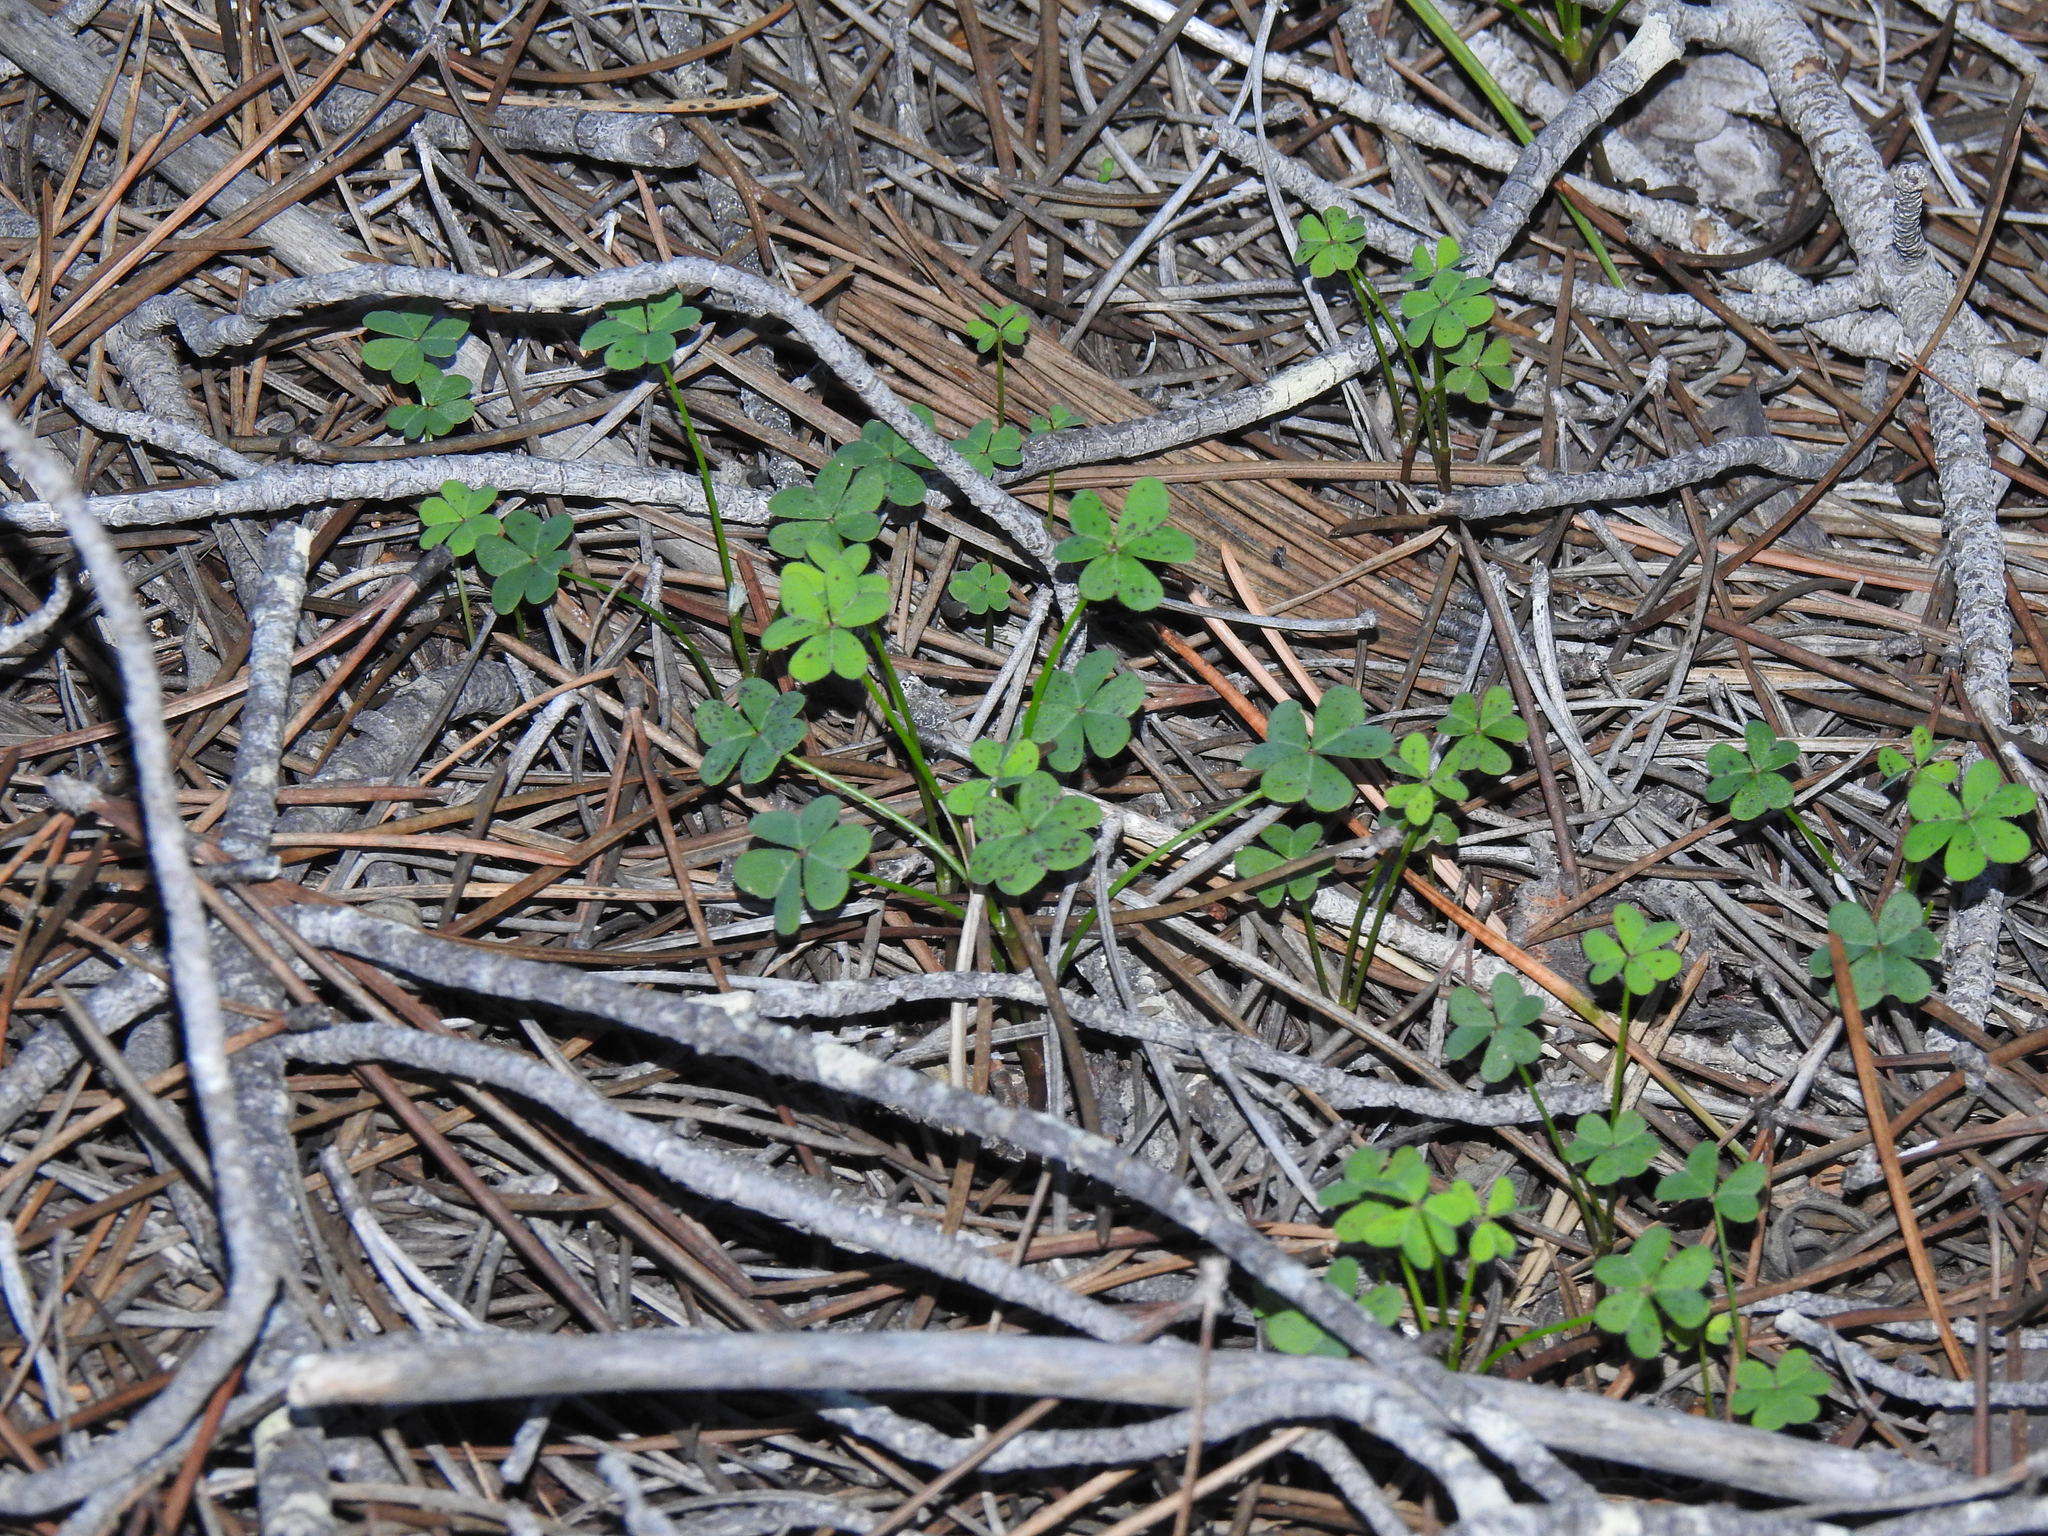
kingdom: Plantae
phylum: Tracheophyta
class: Magnoliopsida
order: Oxalidales
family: Oxalidaceae
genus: Oxalis
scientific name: Oxalis pes-caprae
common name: Bermuda-buttercup
